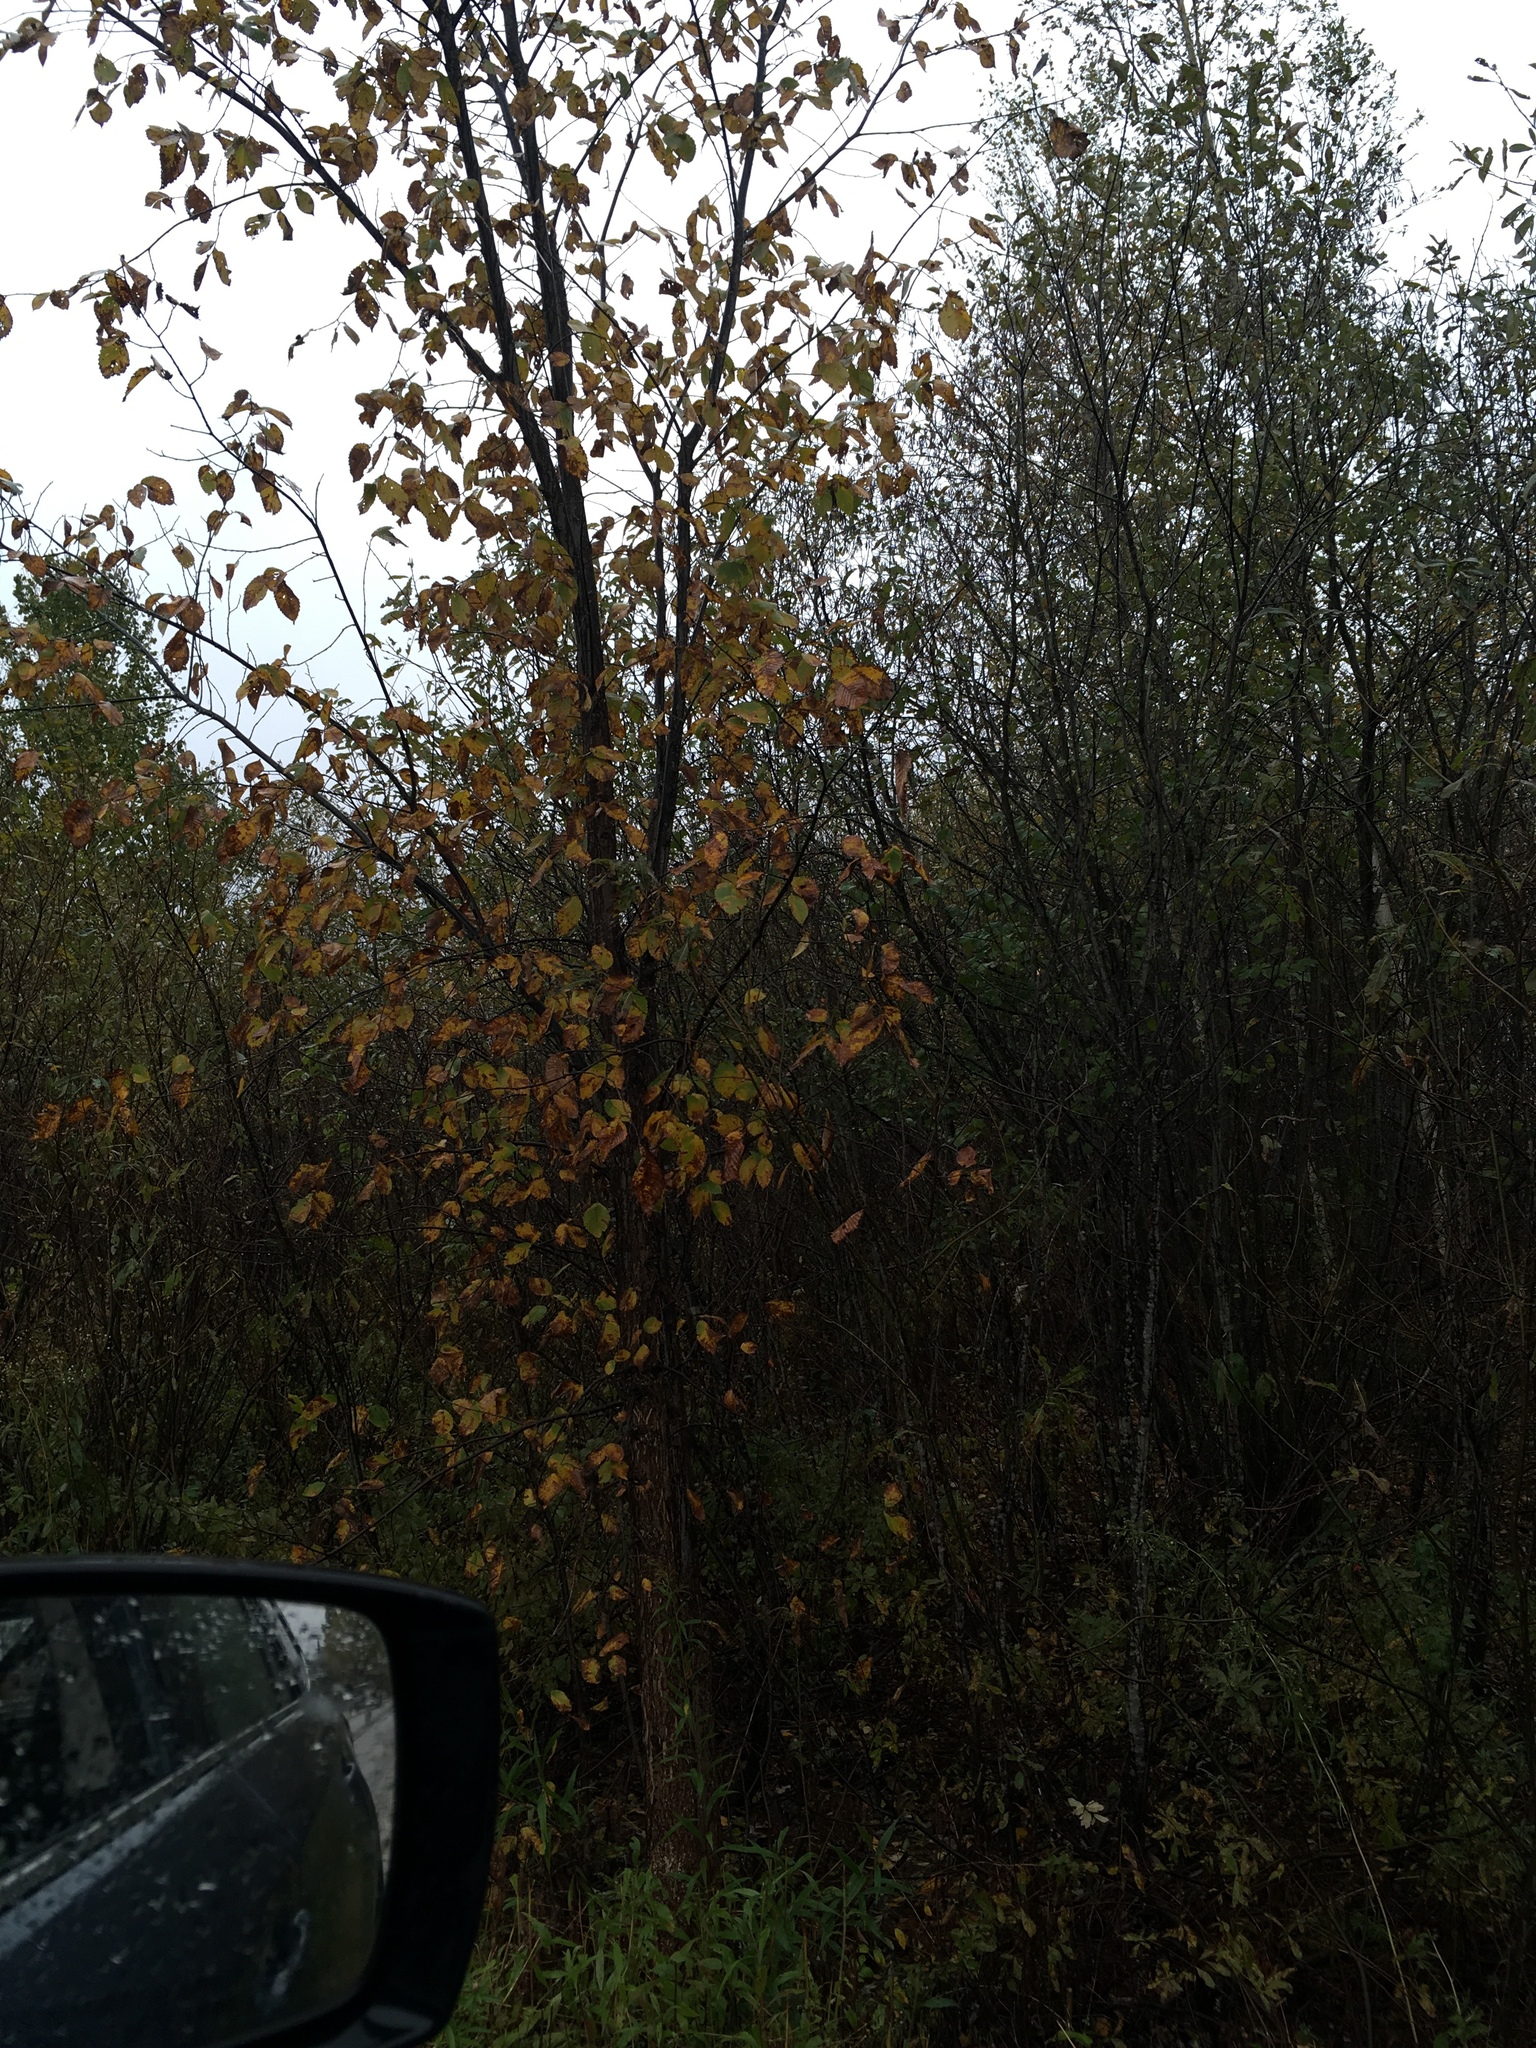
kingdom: Plantae
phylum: Tracheophyta
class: Magnoliopsida
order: Rosales
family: Ulmaceae
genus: Ulmus
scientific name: Ulmus americana
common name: American elm
